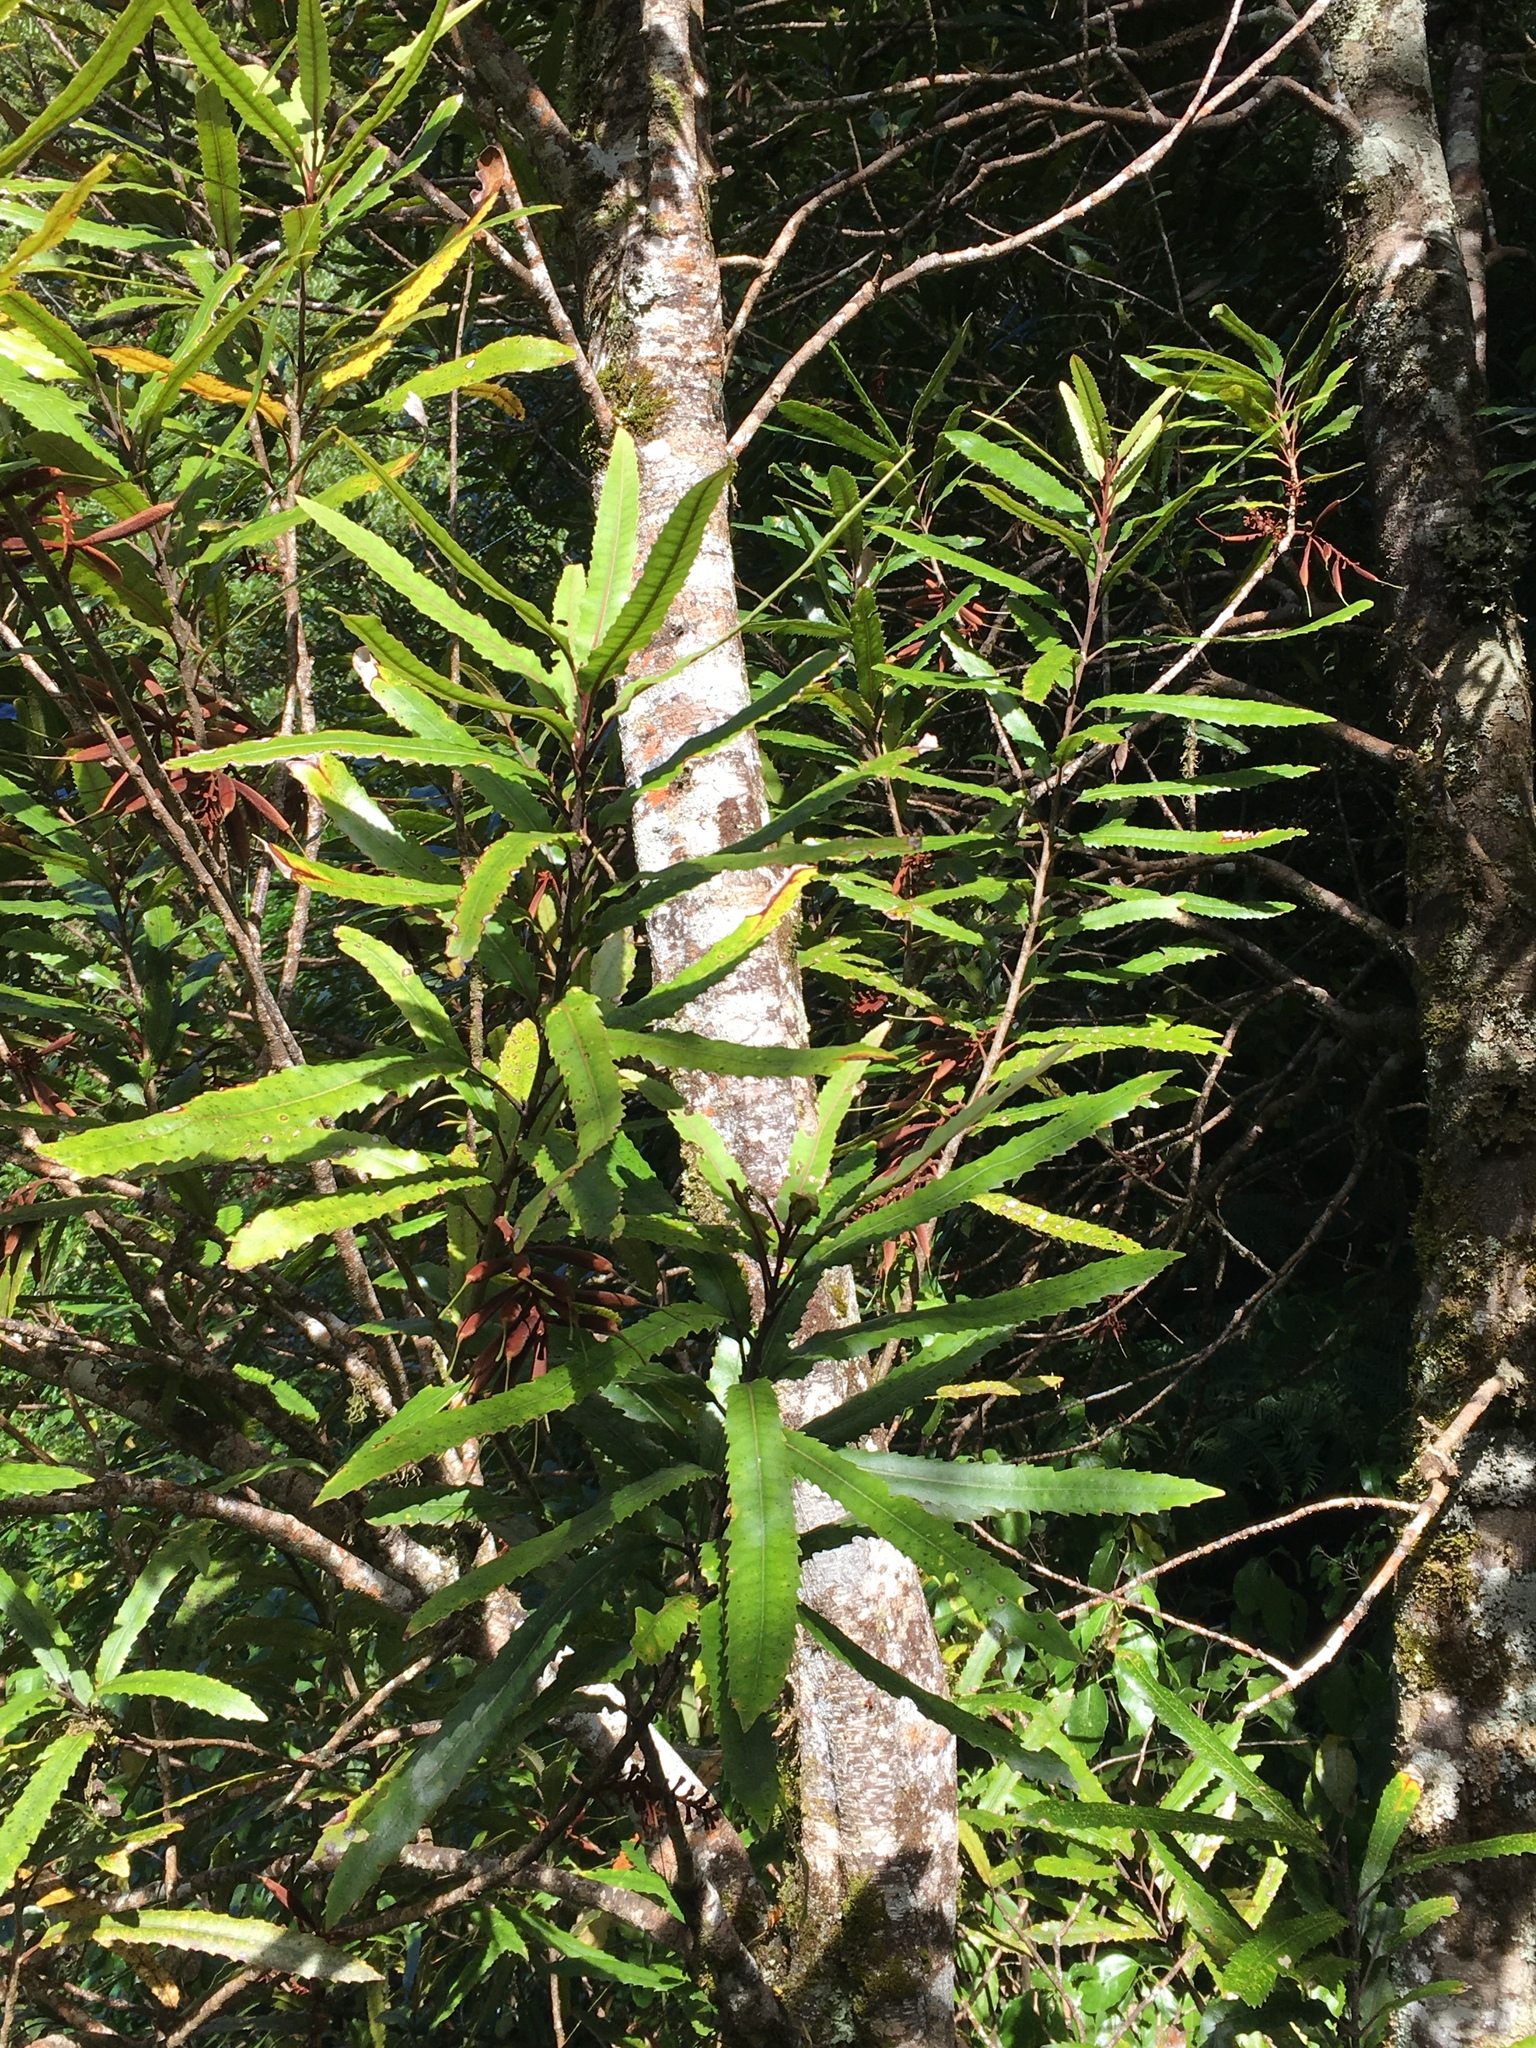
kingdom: Plantae
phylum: Tracheophyta
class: Magnoliopsida
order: Proteales
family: Proteaceae
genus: Knightia
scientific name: Knightia excelsa
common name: New zealand-honeysuckle
